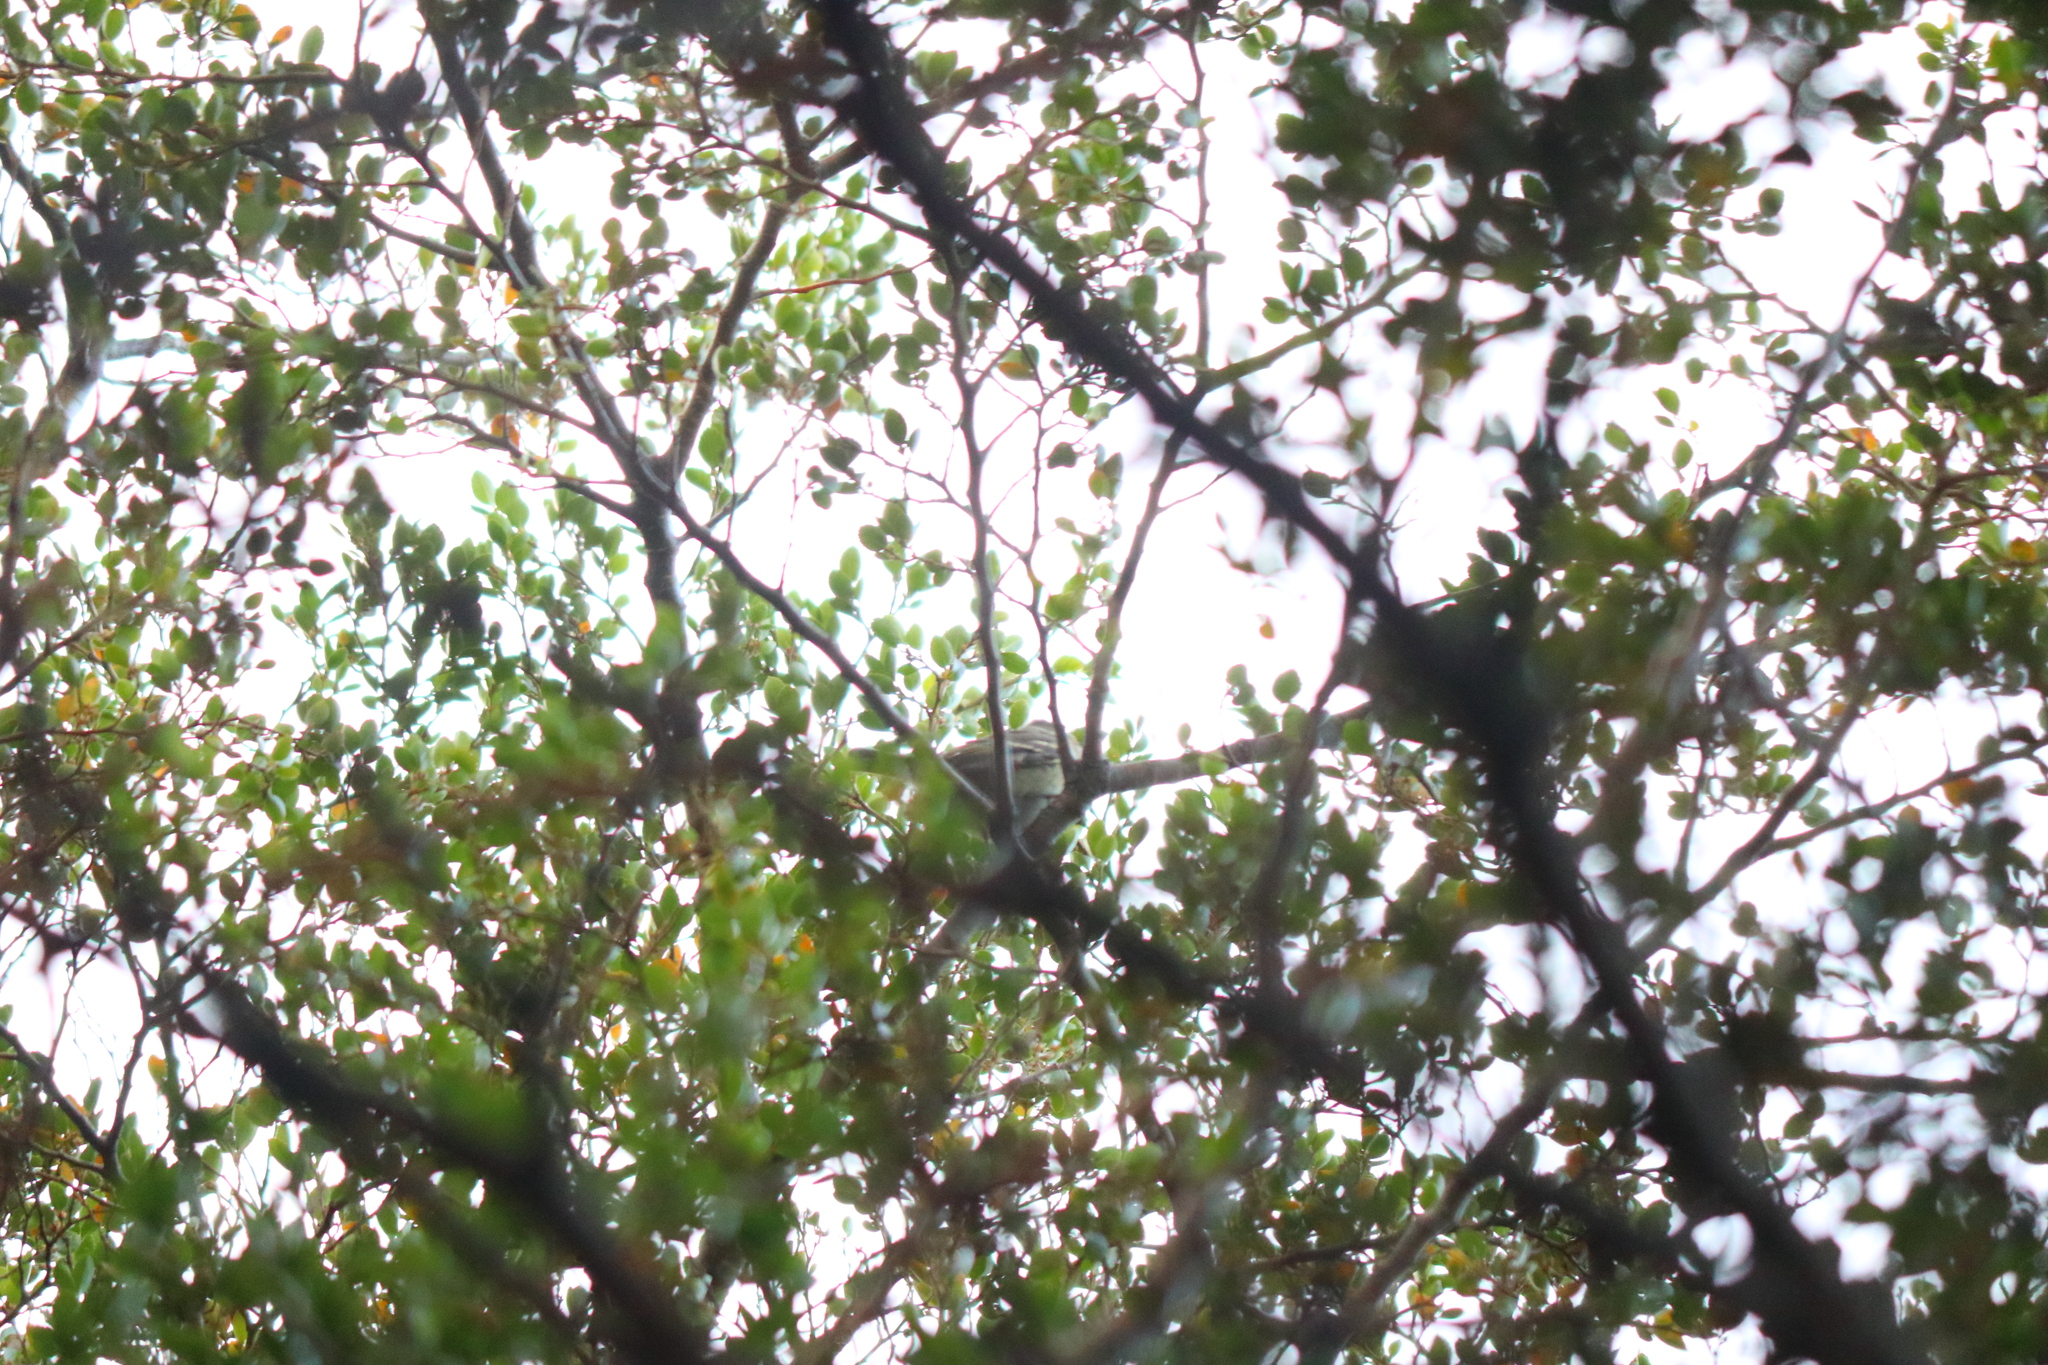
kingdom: Animalia
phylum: Chordata
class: Aves
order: Passeriformes
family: Tyrannidae
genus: Elaenia
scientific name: Elaenia albiceps
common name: White-crested elaenia
